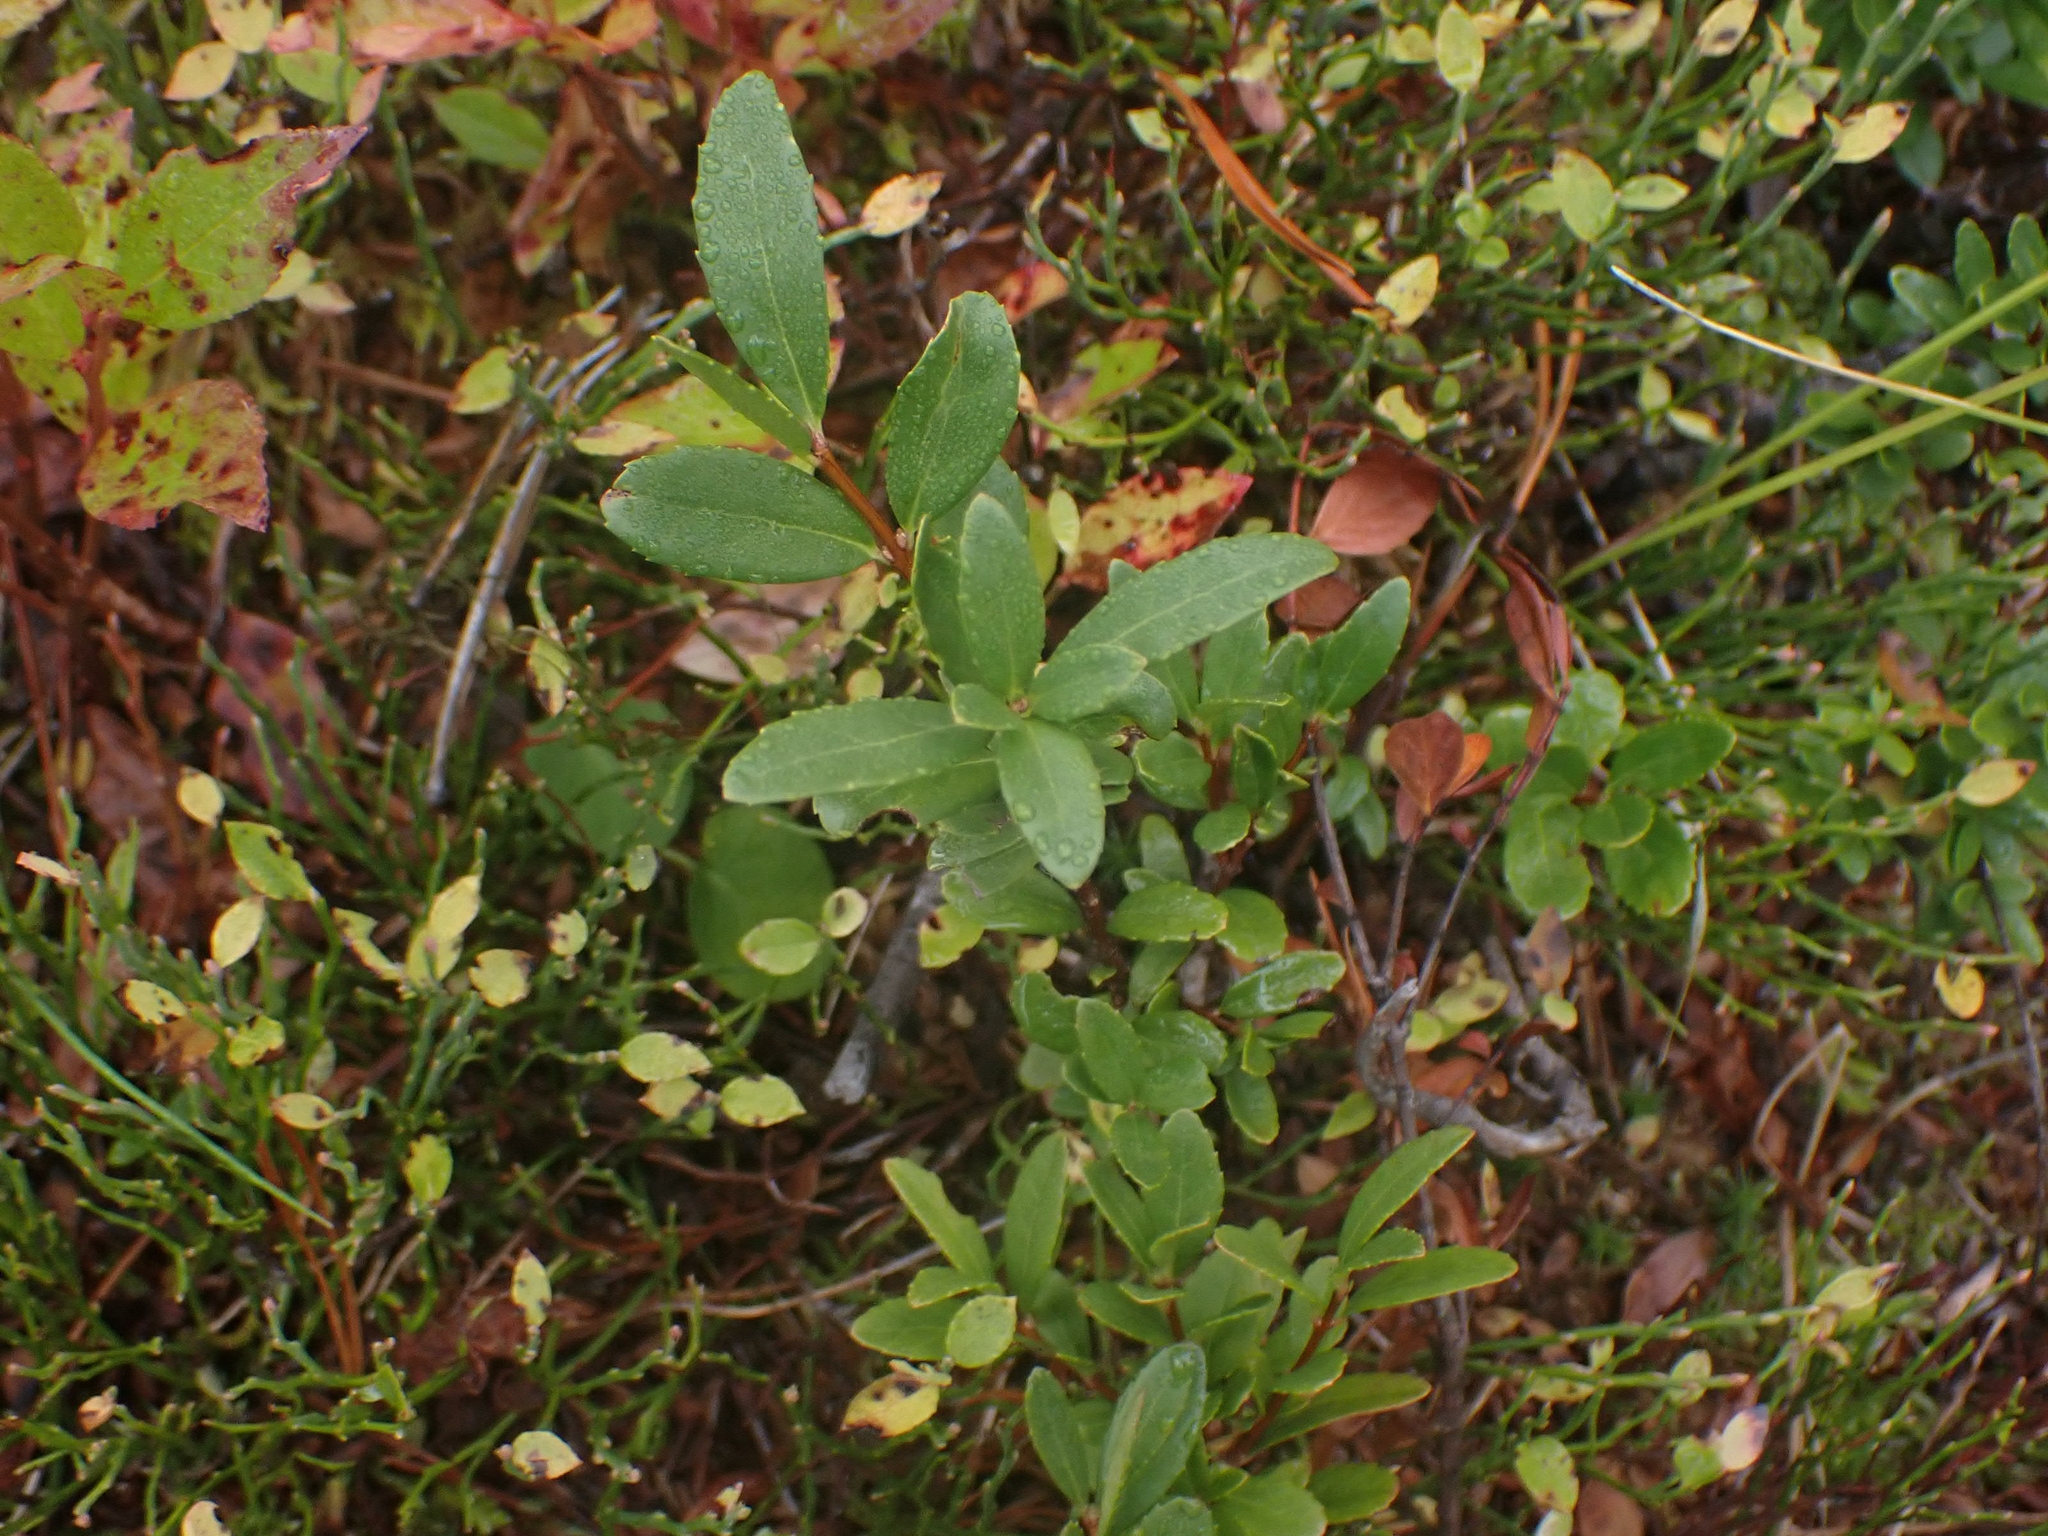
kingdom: Plantae
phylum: Tracheophyta
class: Magnoliopsida
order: Celastrales
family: Celastraceae
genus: Paxistima
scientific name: Paxistima myrsinites
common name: Mountain-lover
